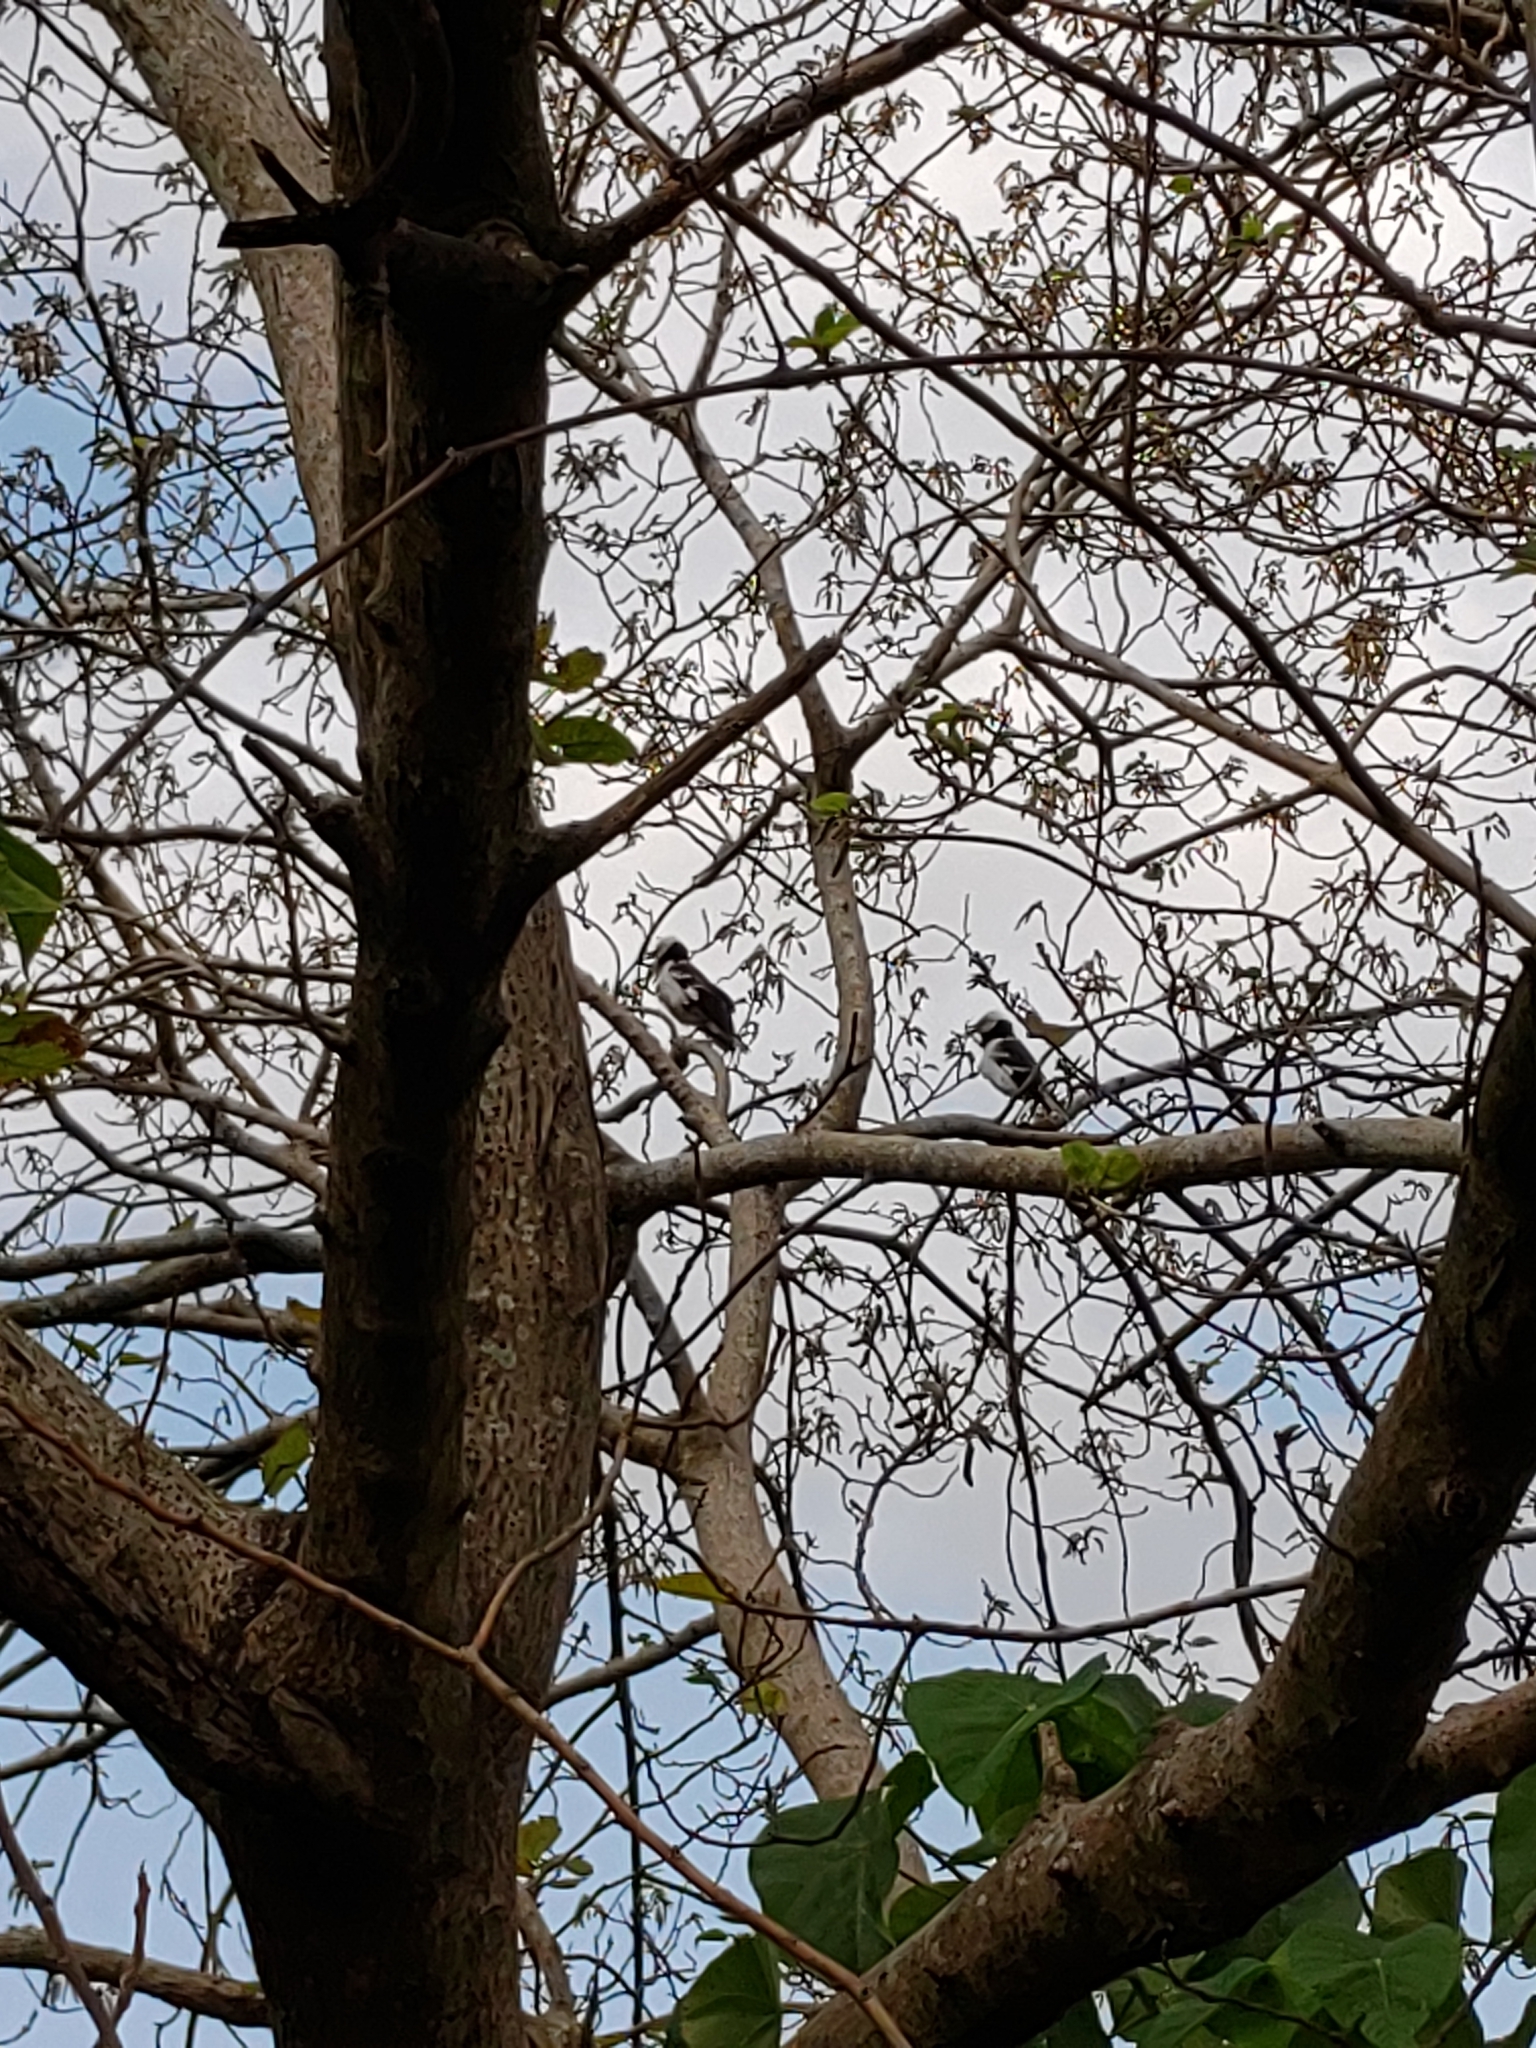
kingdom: Animalia
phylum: Chordata
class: Aves
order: Passeriformes
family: Sturnidae
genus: Gracupica
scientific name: Gracupica nigricollis
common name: Black-collared starling
